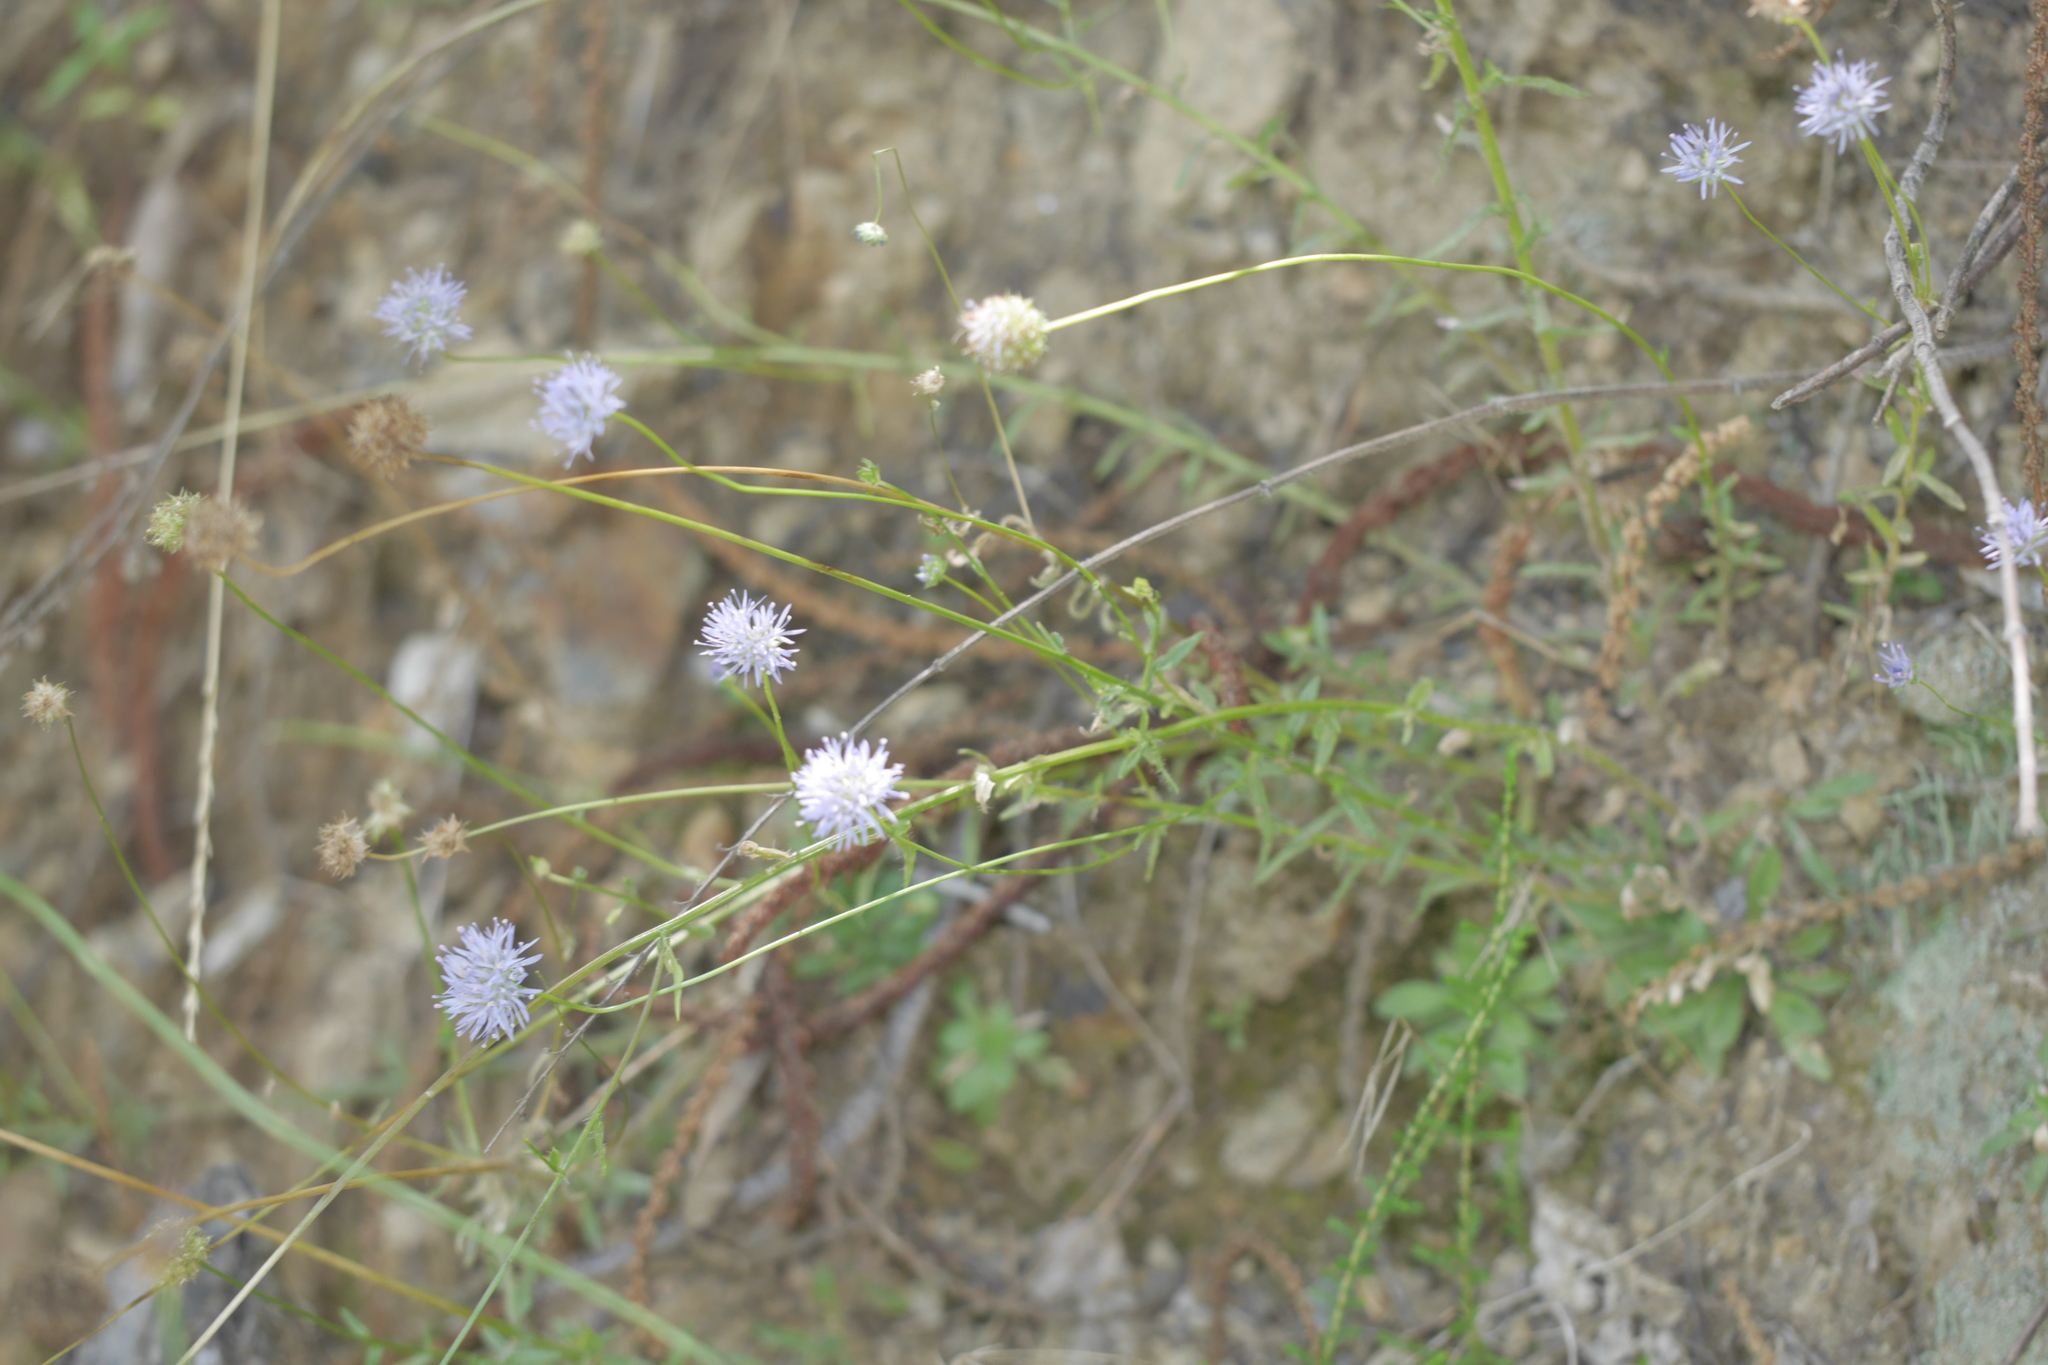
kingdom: Plantae
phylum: Tracheophyta
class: Magnoliopsida
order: Asterales
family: Campanulaceae
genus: Jasione
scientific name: Jasione montana
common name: Sheep's-bit
